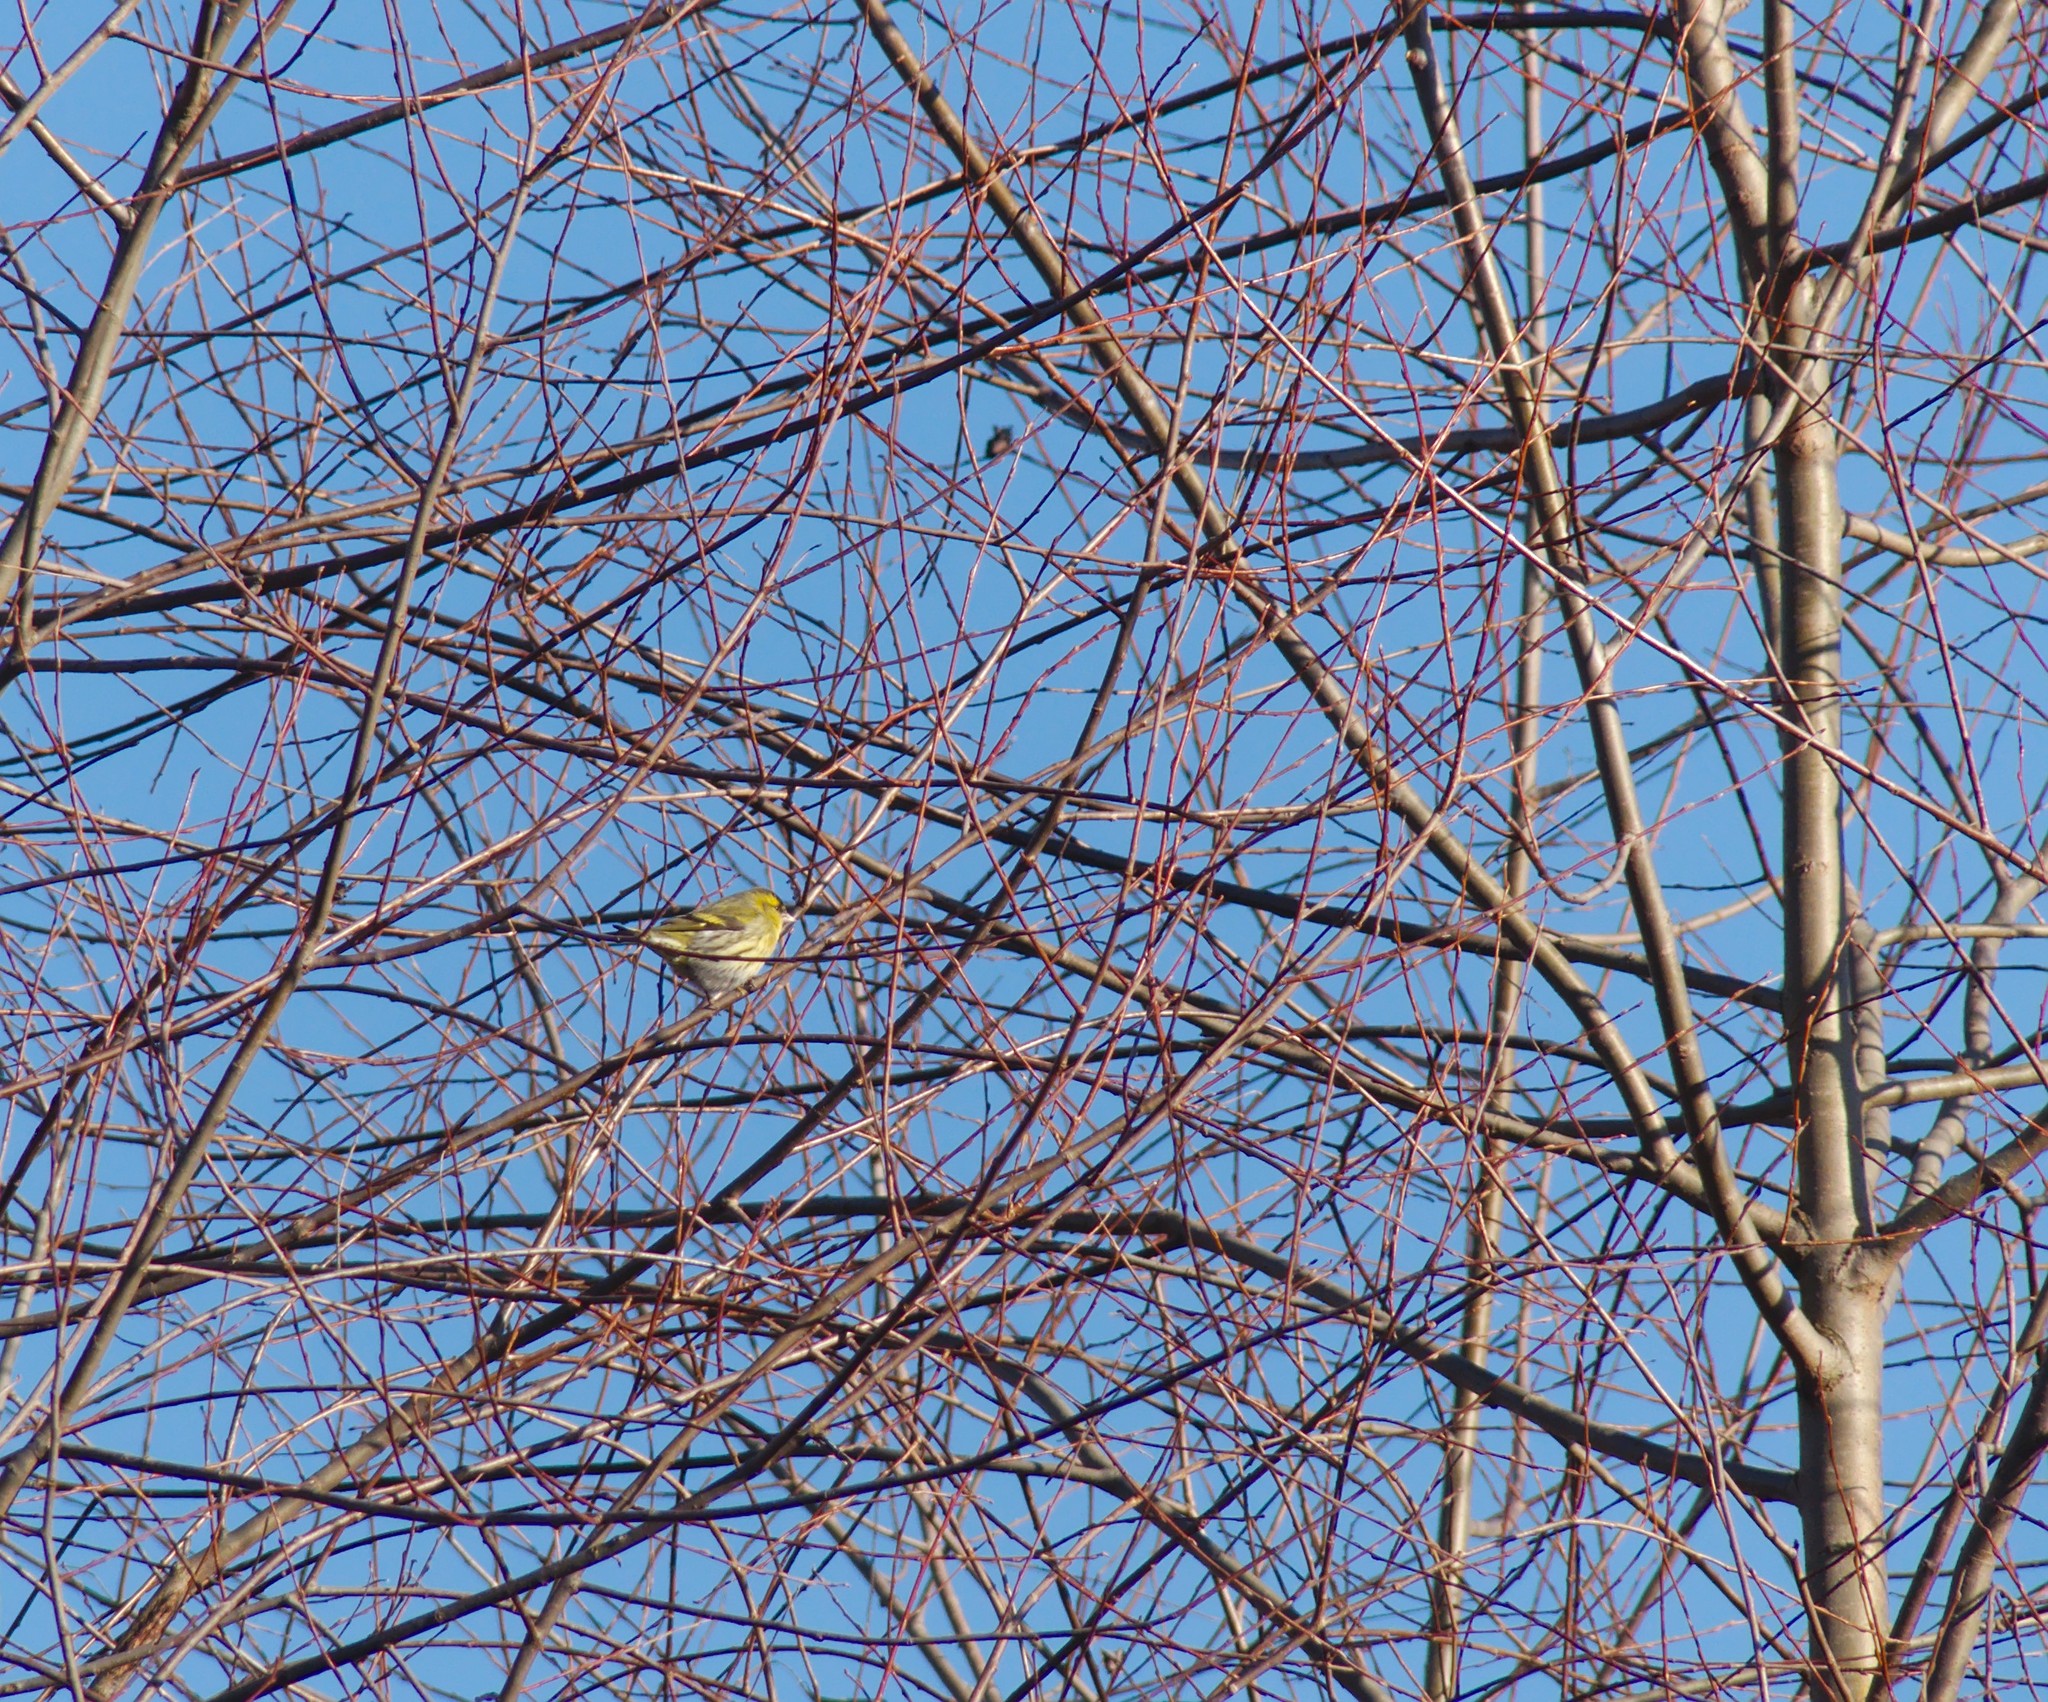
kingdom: Animalia
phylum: Chordata
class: Aves
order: Passeriformes
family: Fringillidae
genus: Spinus
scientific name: Spinus spinus
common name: Eurasian siskin
